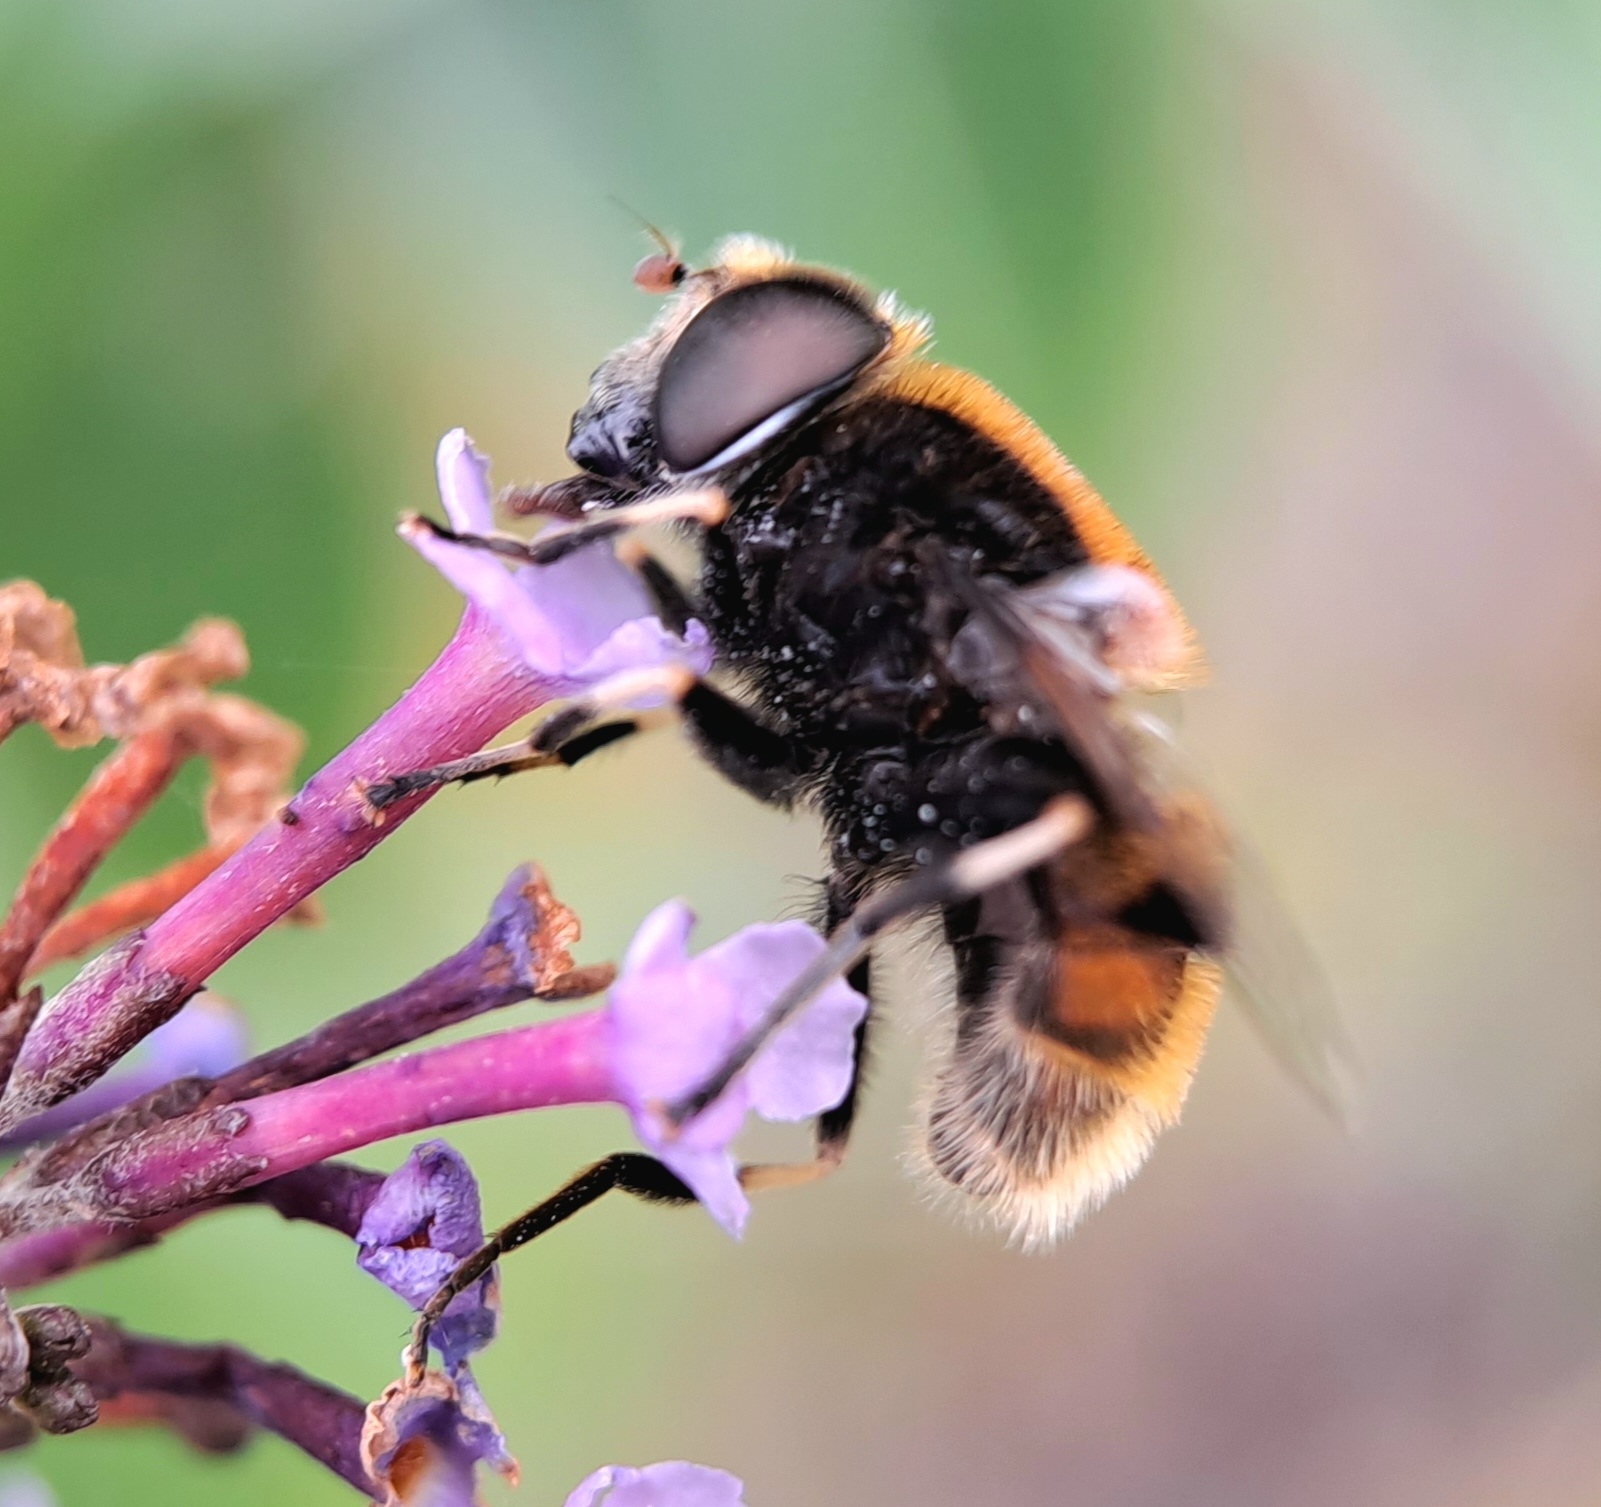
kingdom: Animalia
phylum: Arthropoda
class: Insecta
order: Diptera
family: Syrphidae
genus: Eristalis
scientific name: Eristalis intricaria
